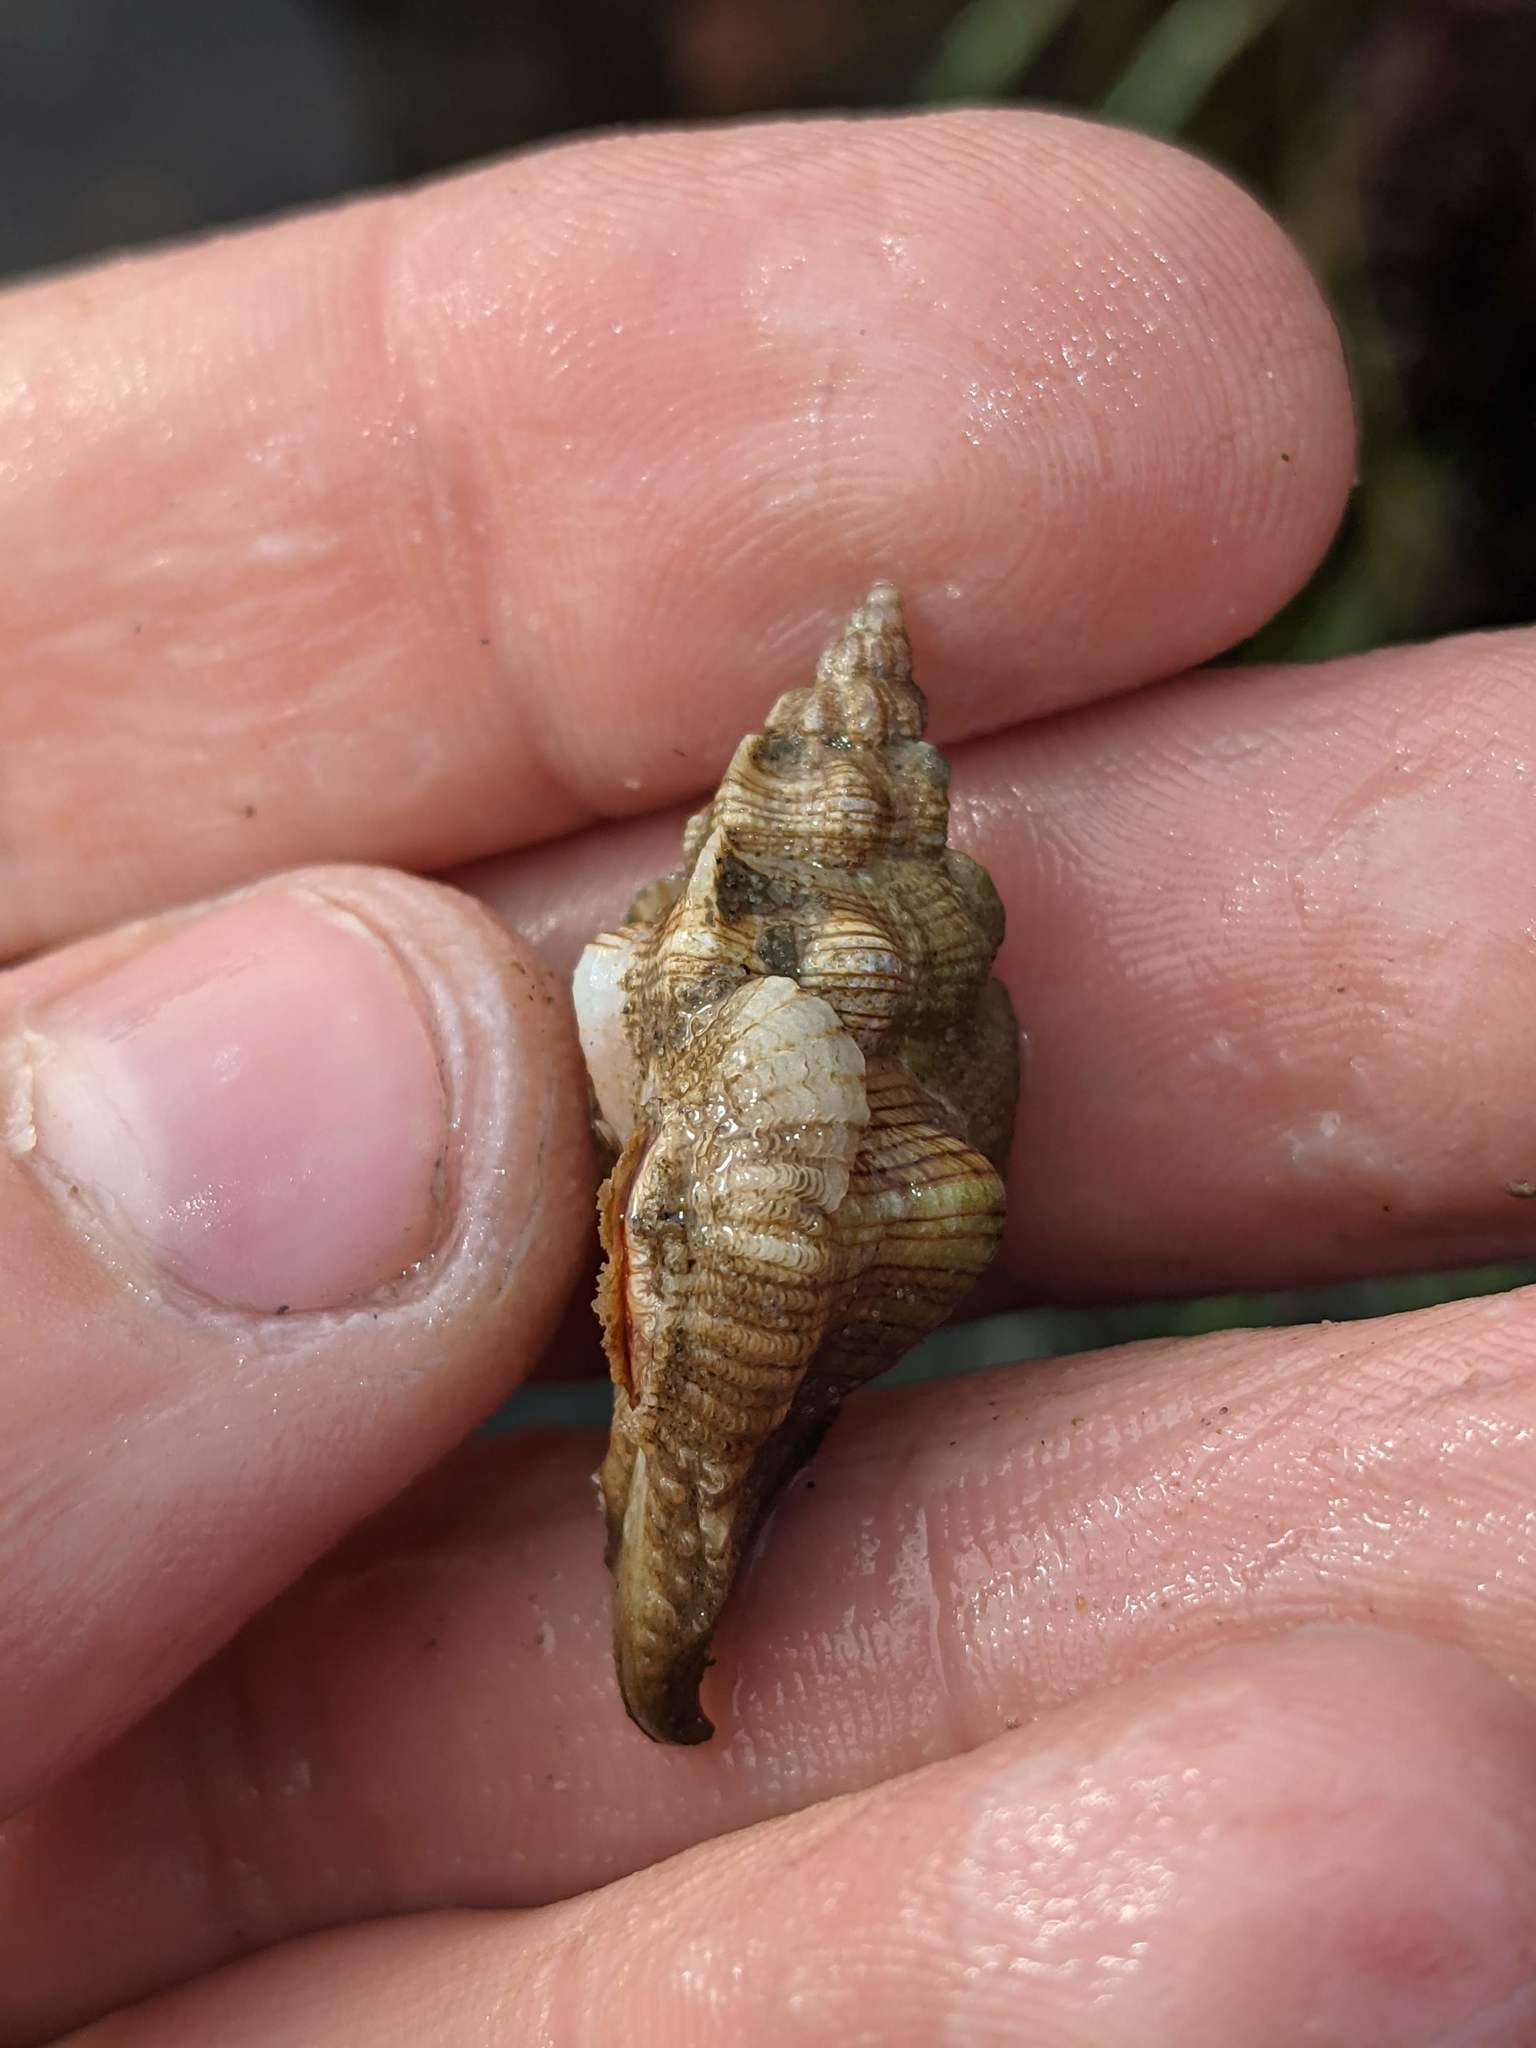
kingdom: Animalia
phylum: Mollusca
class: Gastropoda
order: Neogastropoda
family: Muricidae
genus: Pteropurpura
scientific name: Pteropurpura festiva
